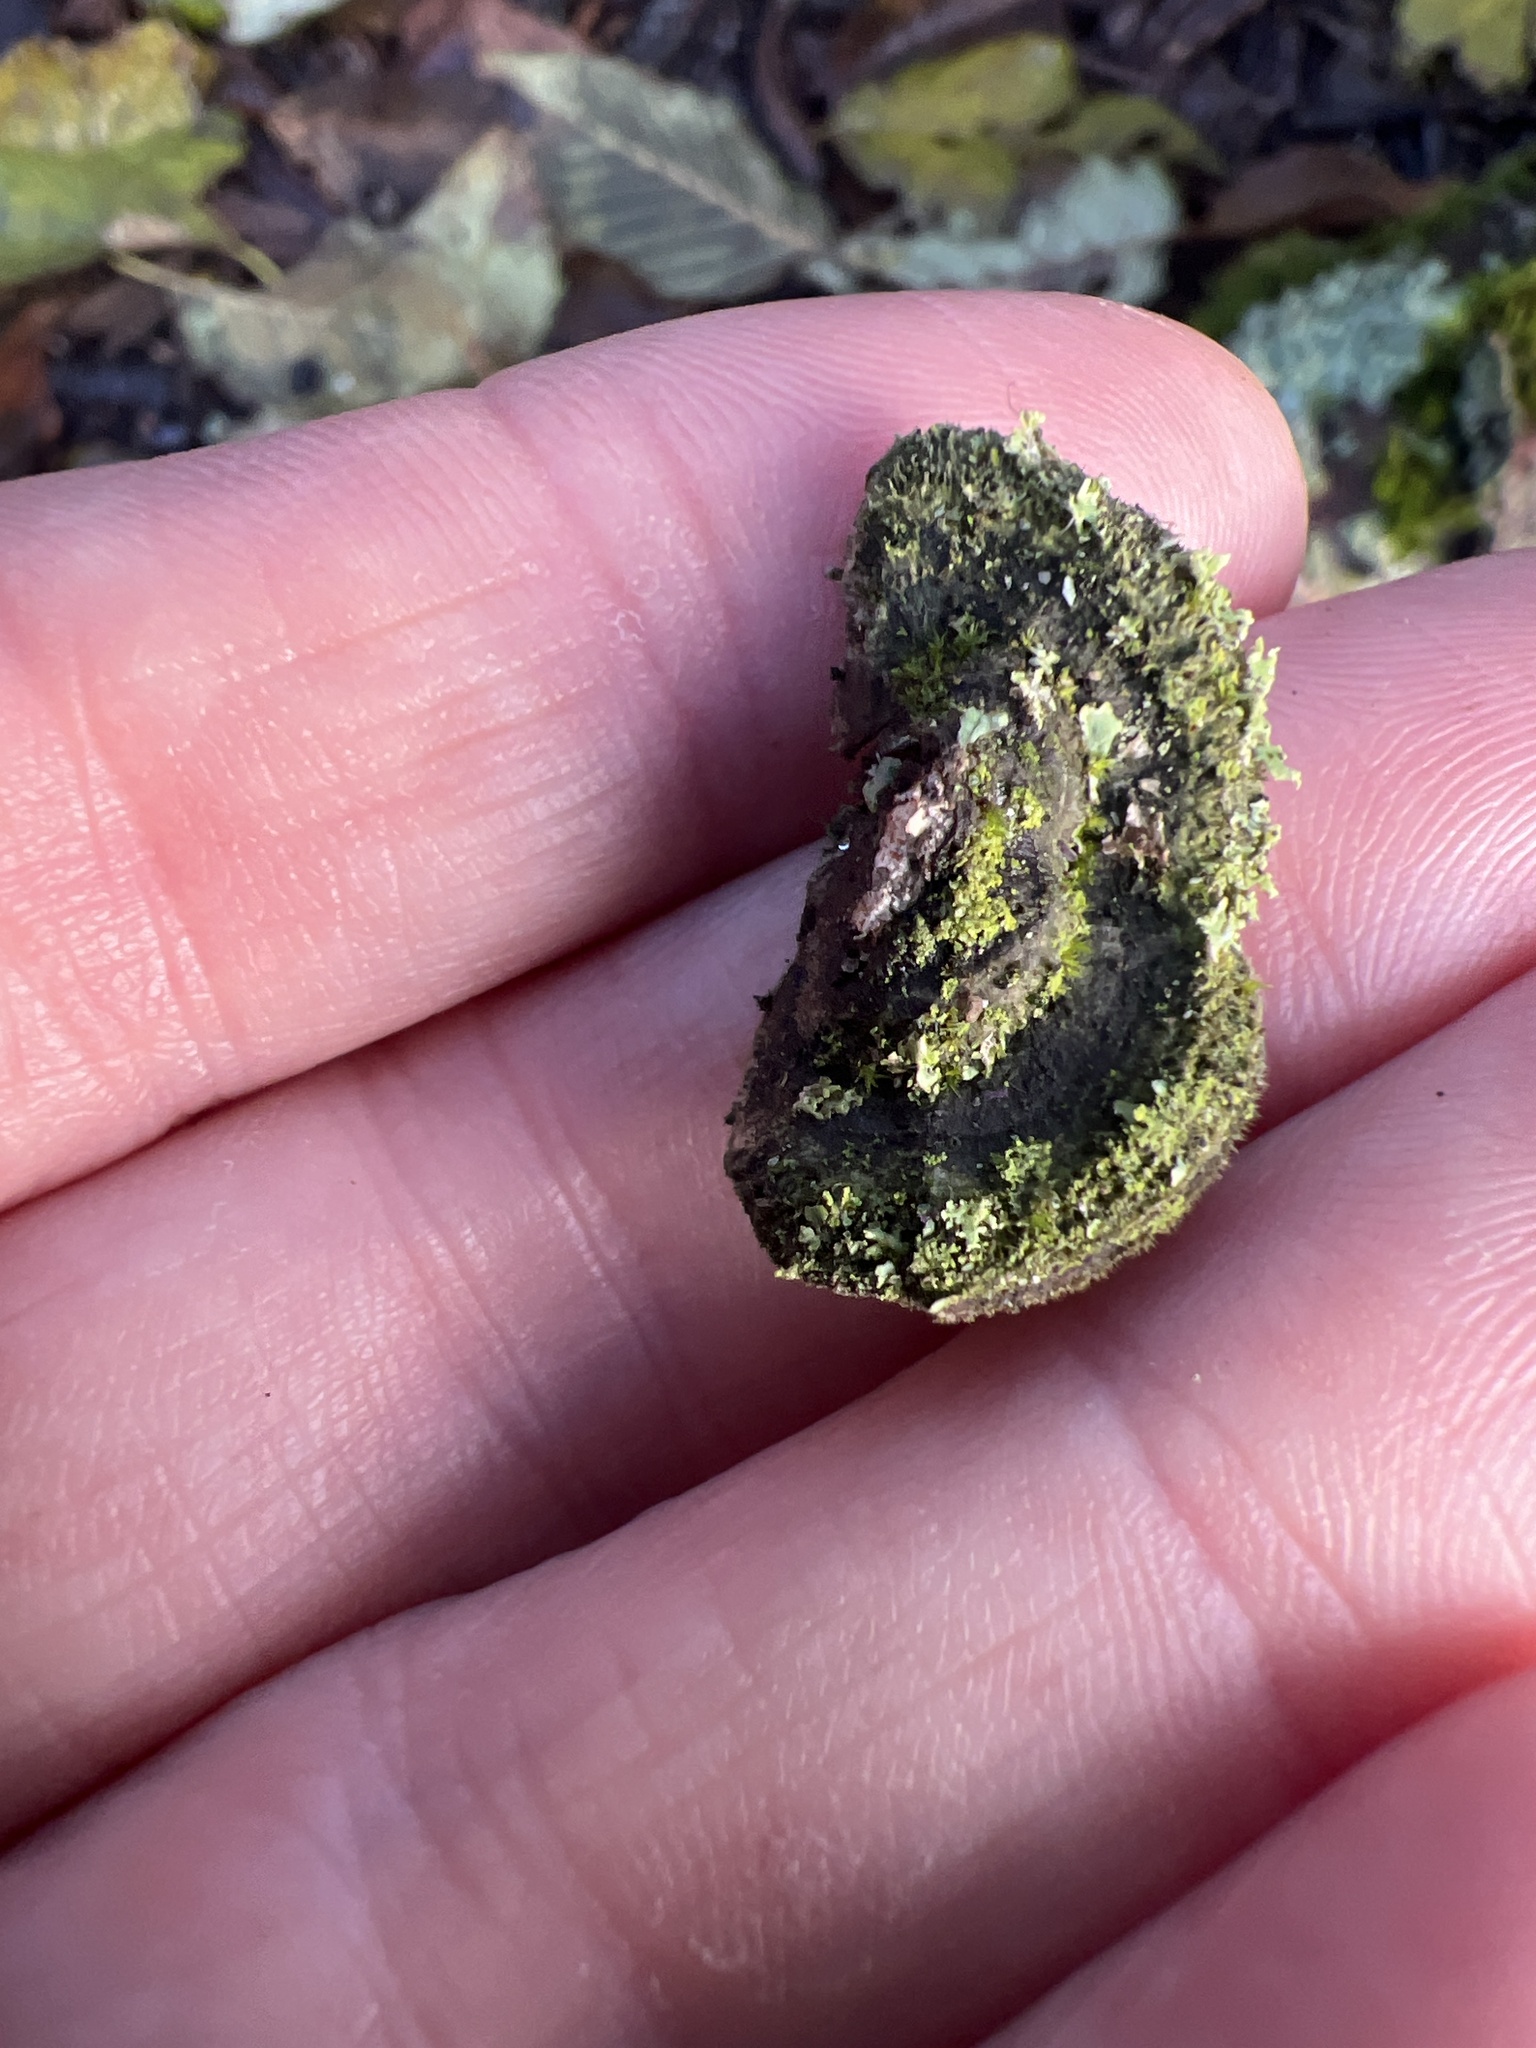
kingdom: Fungi
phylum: Basidiomycota
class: Agaricomycetes
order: Polyporales
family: Cerrenaceae
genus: Cerrena
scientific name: Cerrena unicolor
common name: Mossy maze polypore
